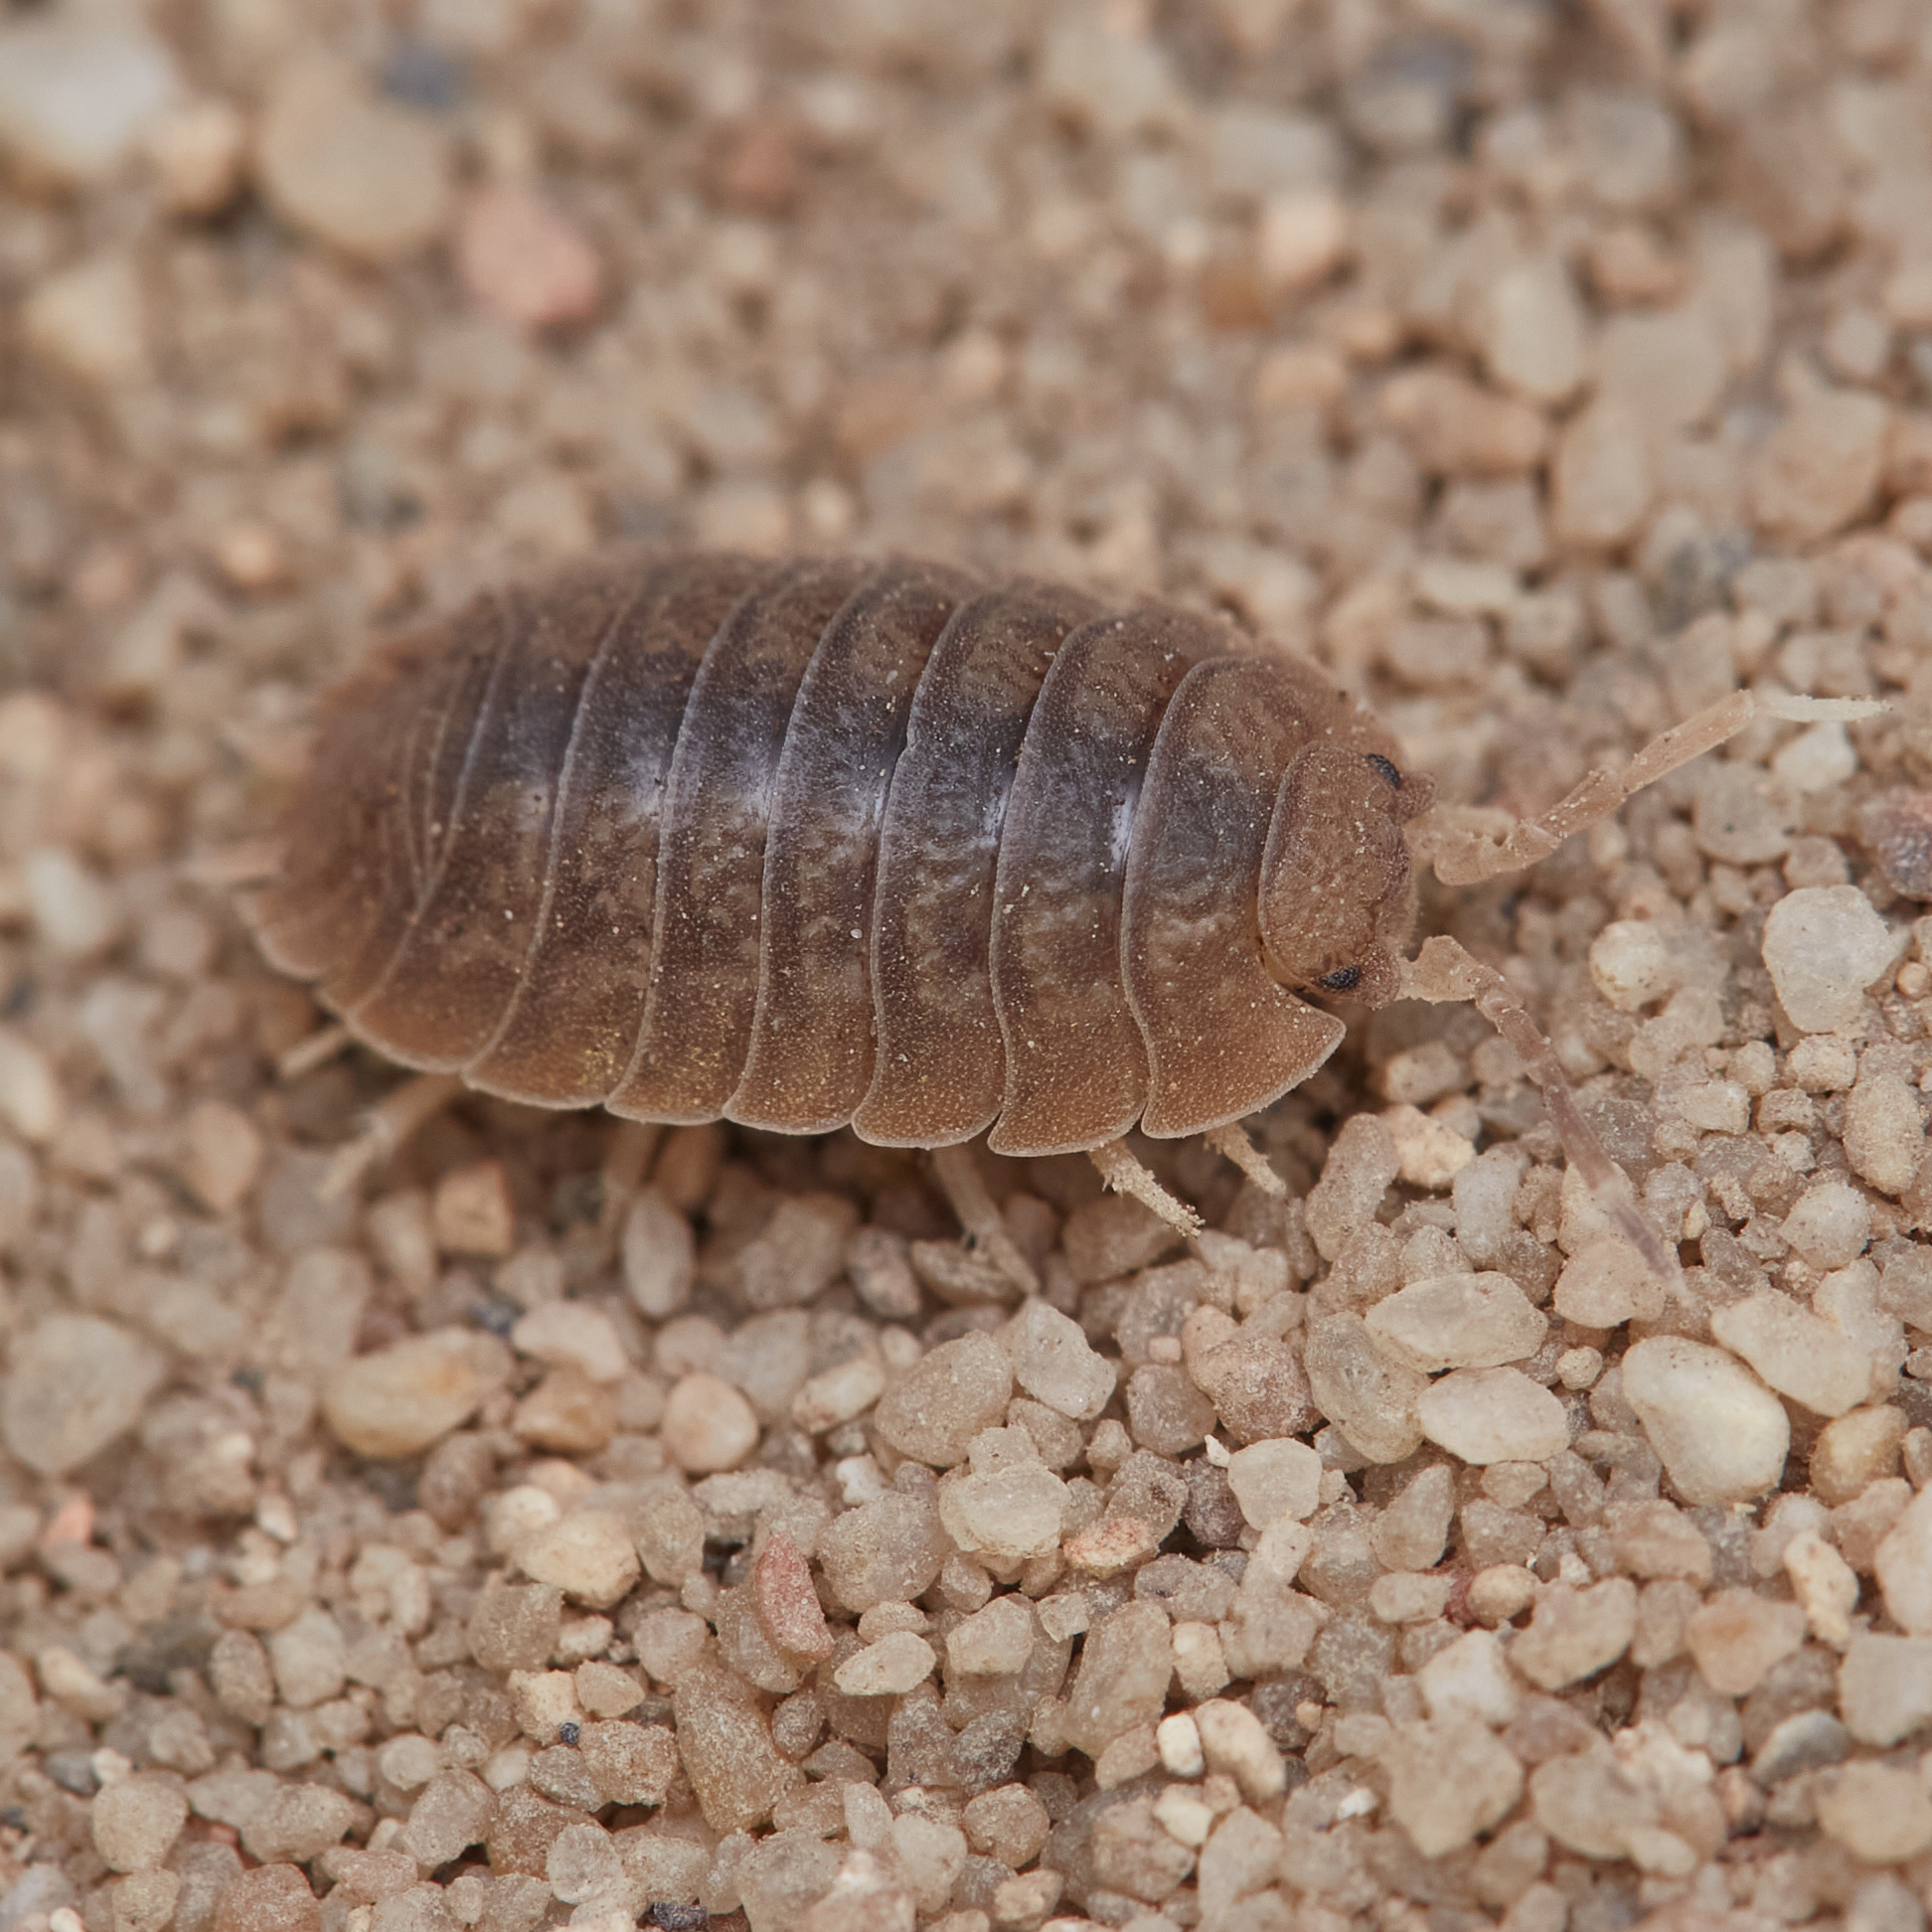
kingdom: Animalia
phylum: Arthropoda
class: Malacostraca
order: Isopoda
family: Porcellionidae
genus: Porcellio
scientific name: Porcellio dilatatus
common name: Isopod
